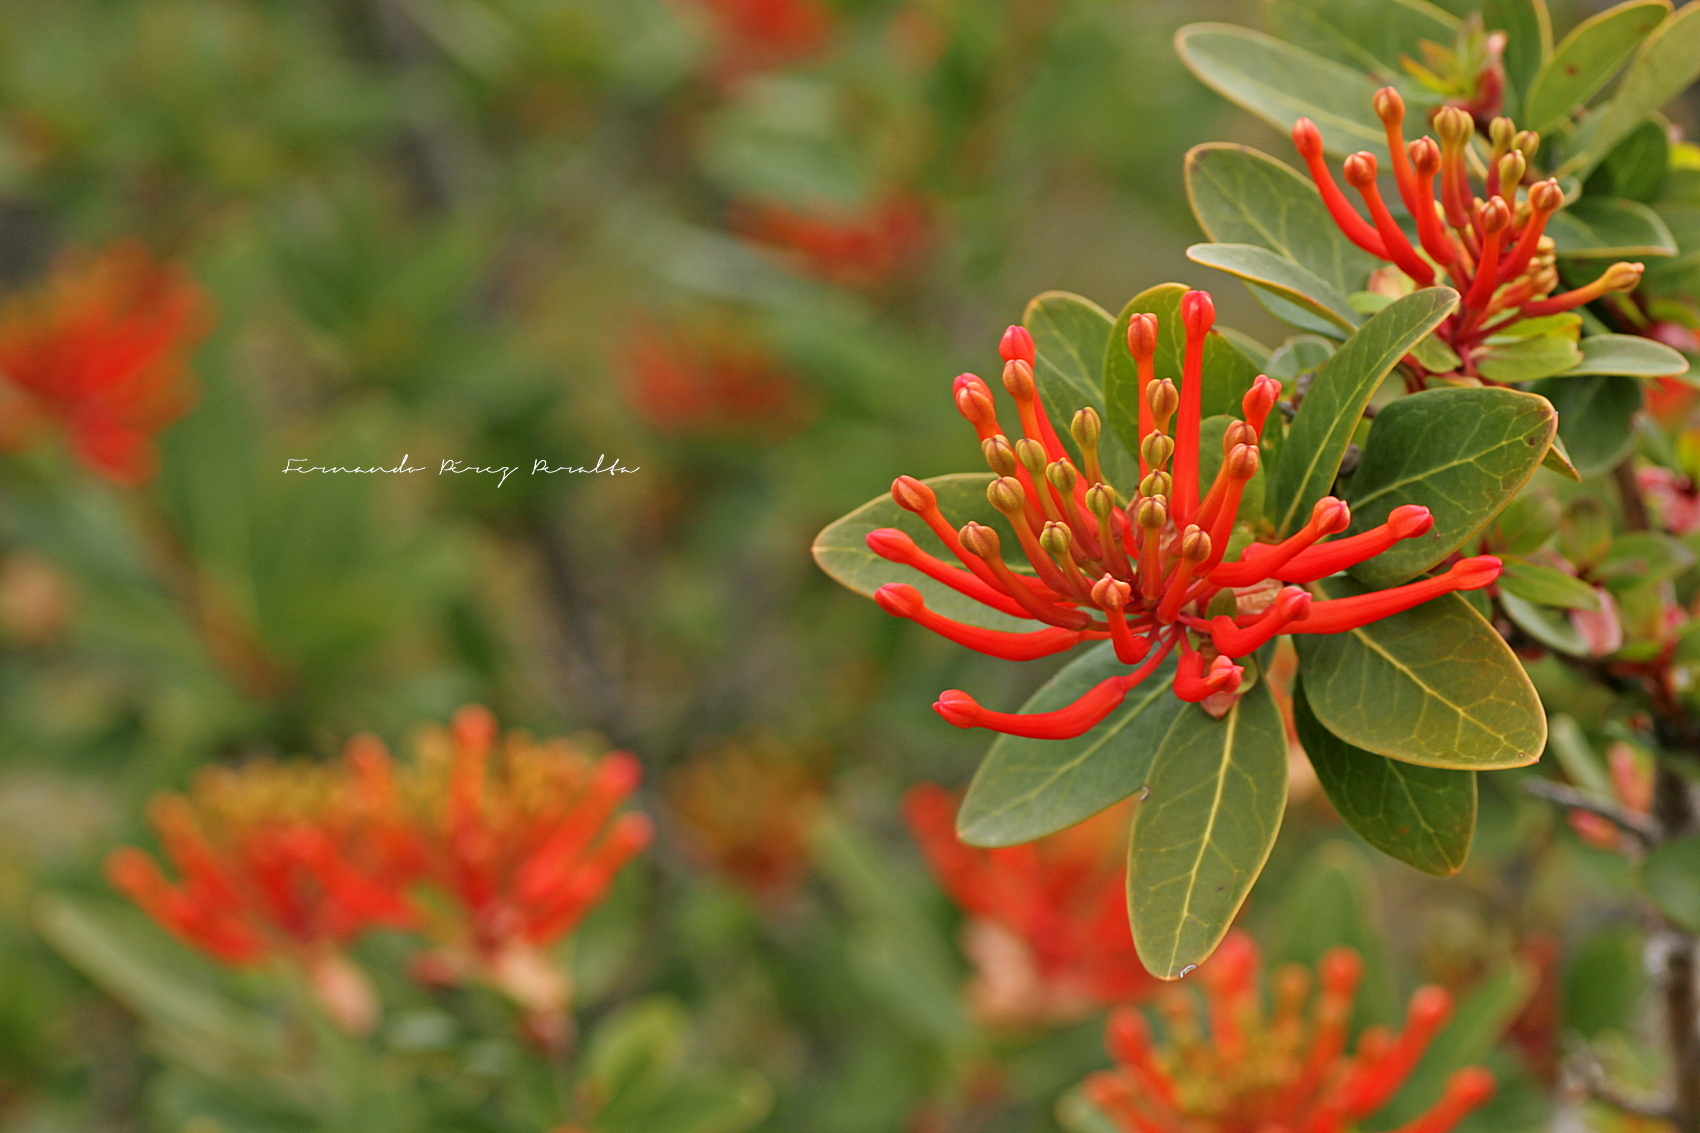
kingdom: Plantae
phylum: Tracheophyta
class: Magnoliopsida
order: Proteales
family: Proteaceae
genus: Embothrium
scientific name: Embothrium coccineum
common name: Chilean firebush
